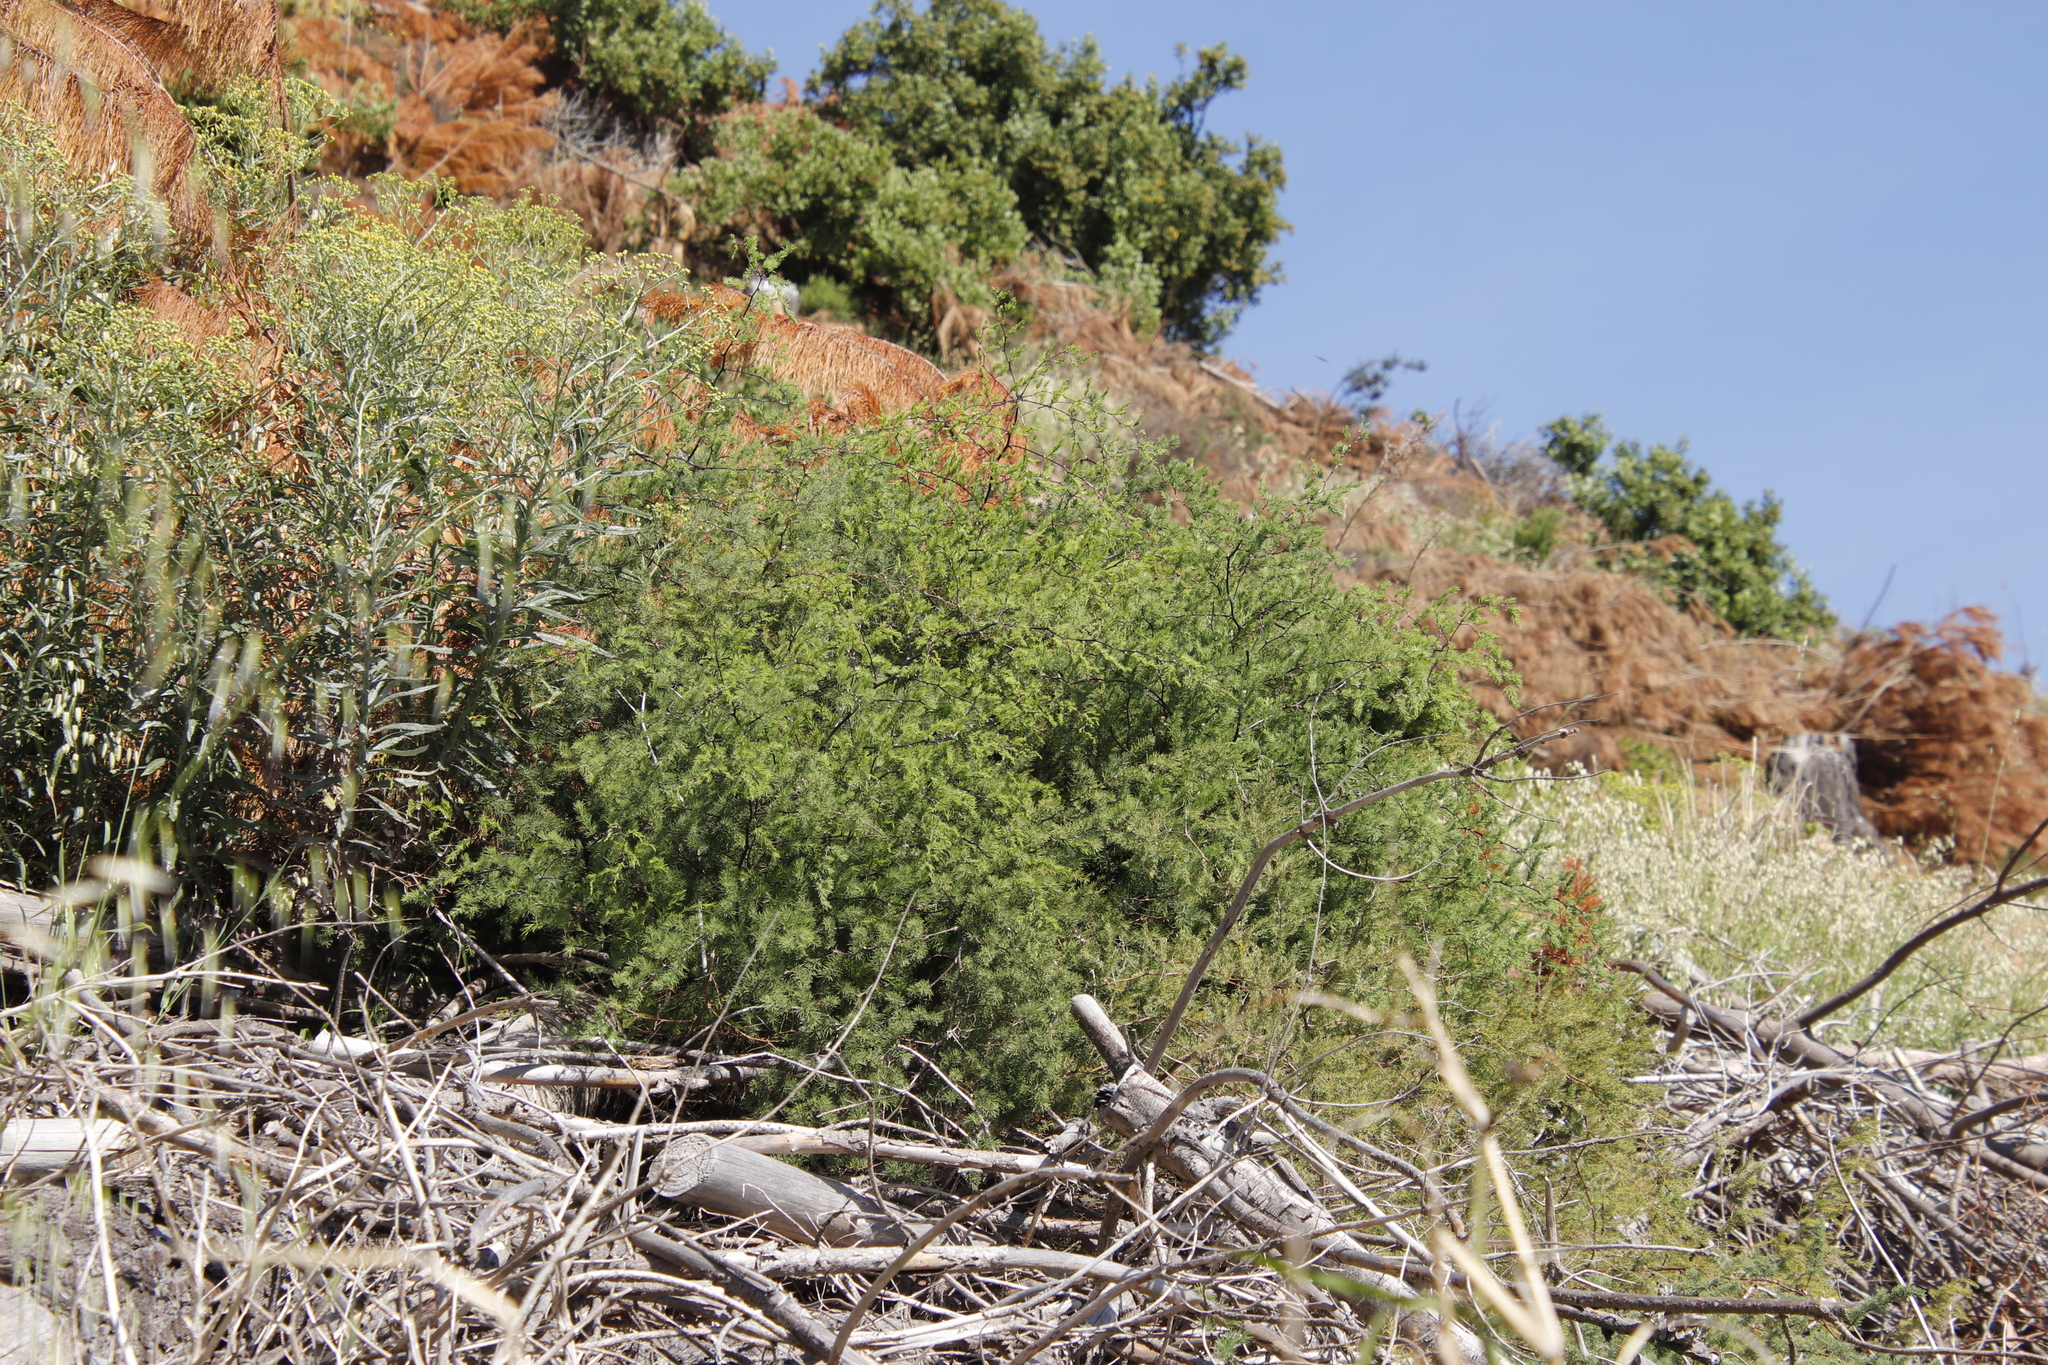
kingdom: Plantae
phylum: Tracheophyta
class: Liliopsida
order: Asparagales
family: Asparagaceae
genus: Asparagus
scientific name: Asparagus rubicundus
